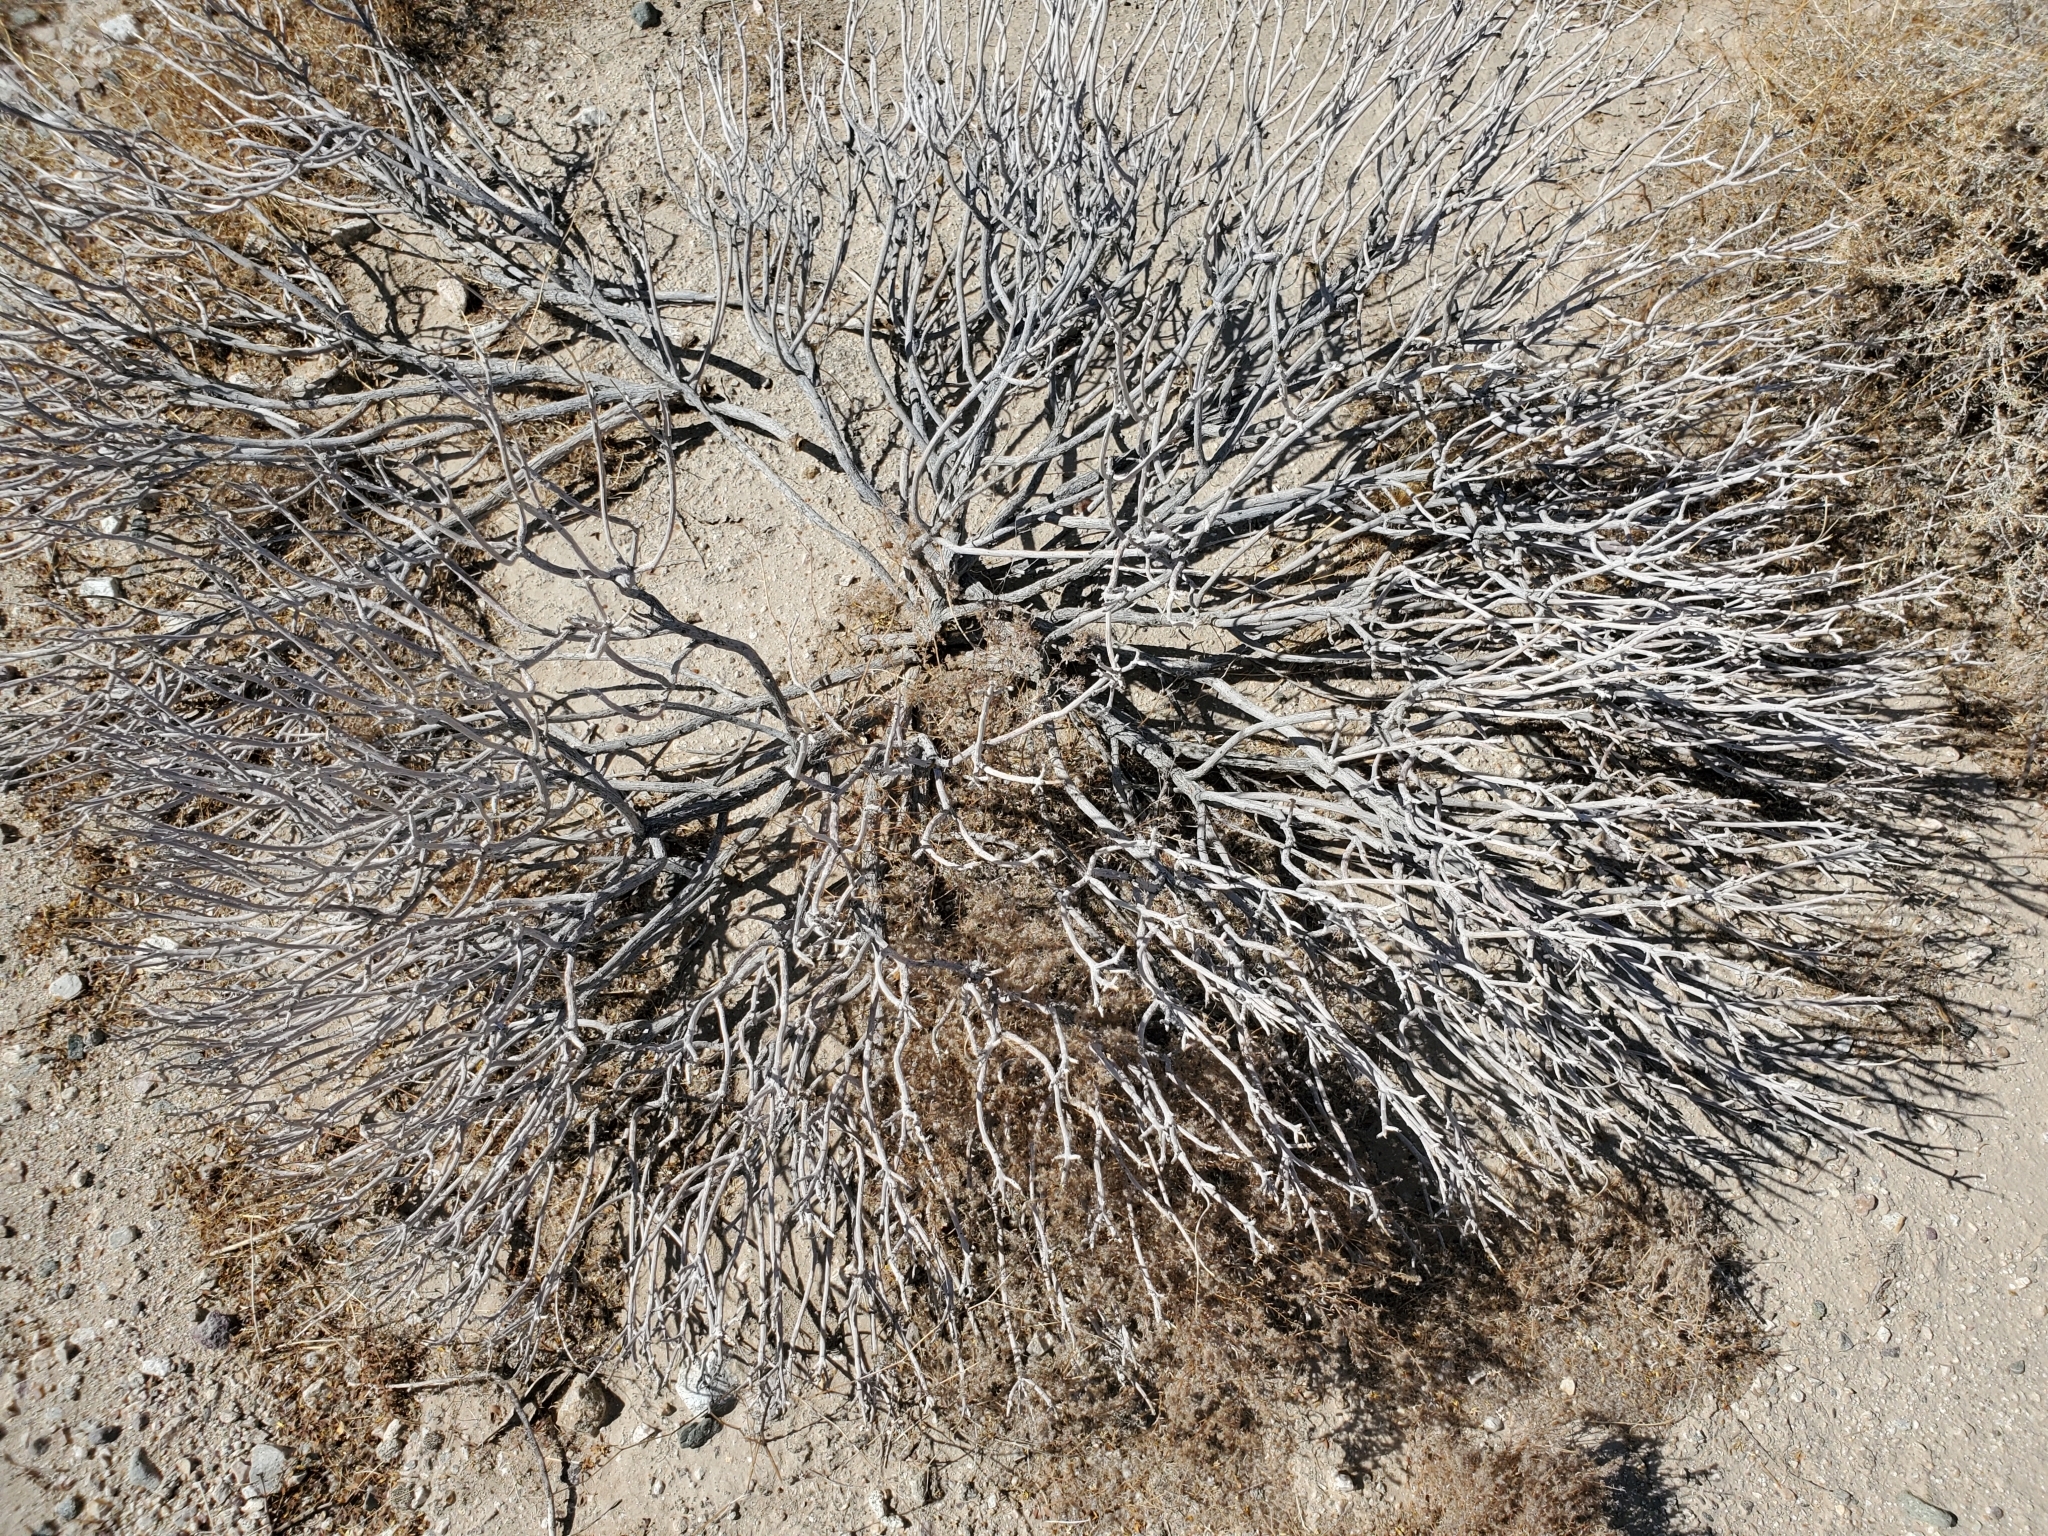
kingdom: Plantae
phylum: Tracheophyta
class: Magnoliopsida
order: Asterales
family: Asteraceae
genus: Encelia
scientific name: Encelia farinosa
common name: Brittlebush
